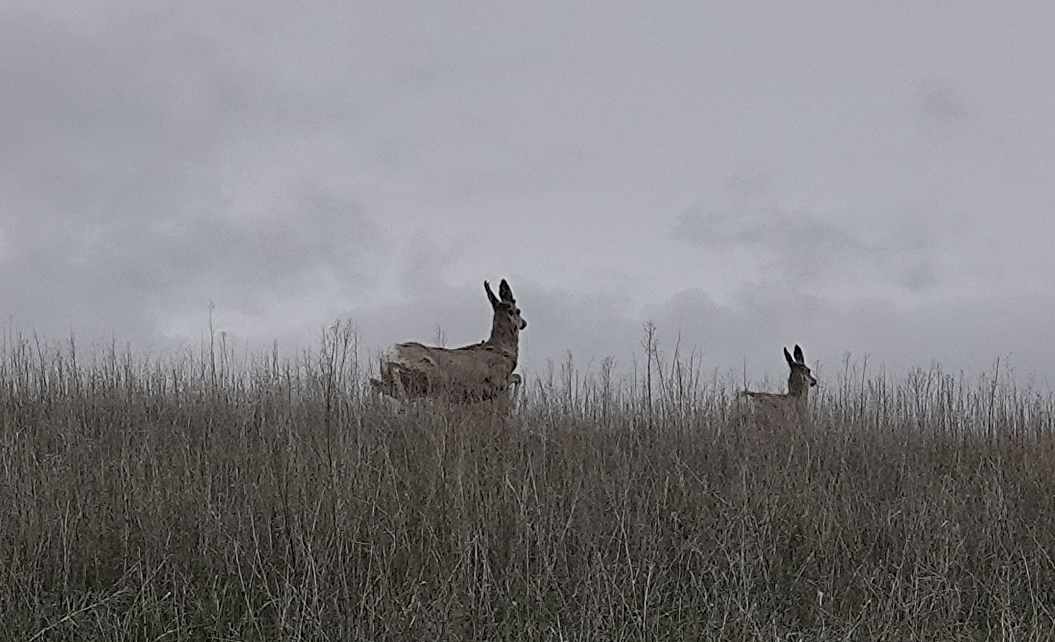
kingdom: Animalia
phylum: Chordata
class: Mammalia
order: Artiodactyla
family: Cervidae
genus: Odocoileus
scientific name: Odocoileus hemionus
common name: Mule deer
